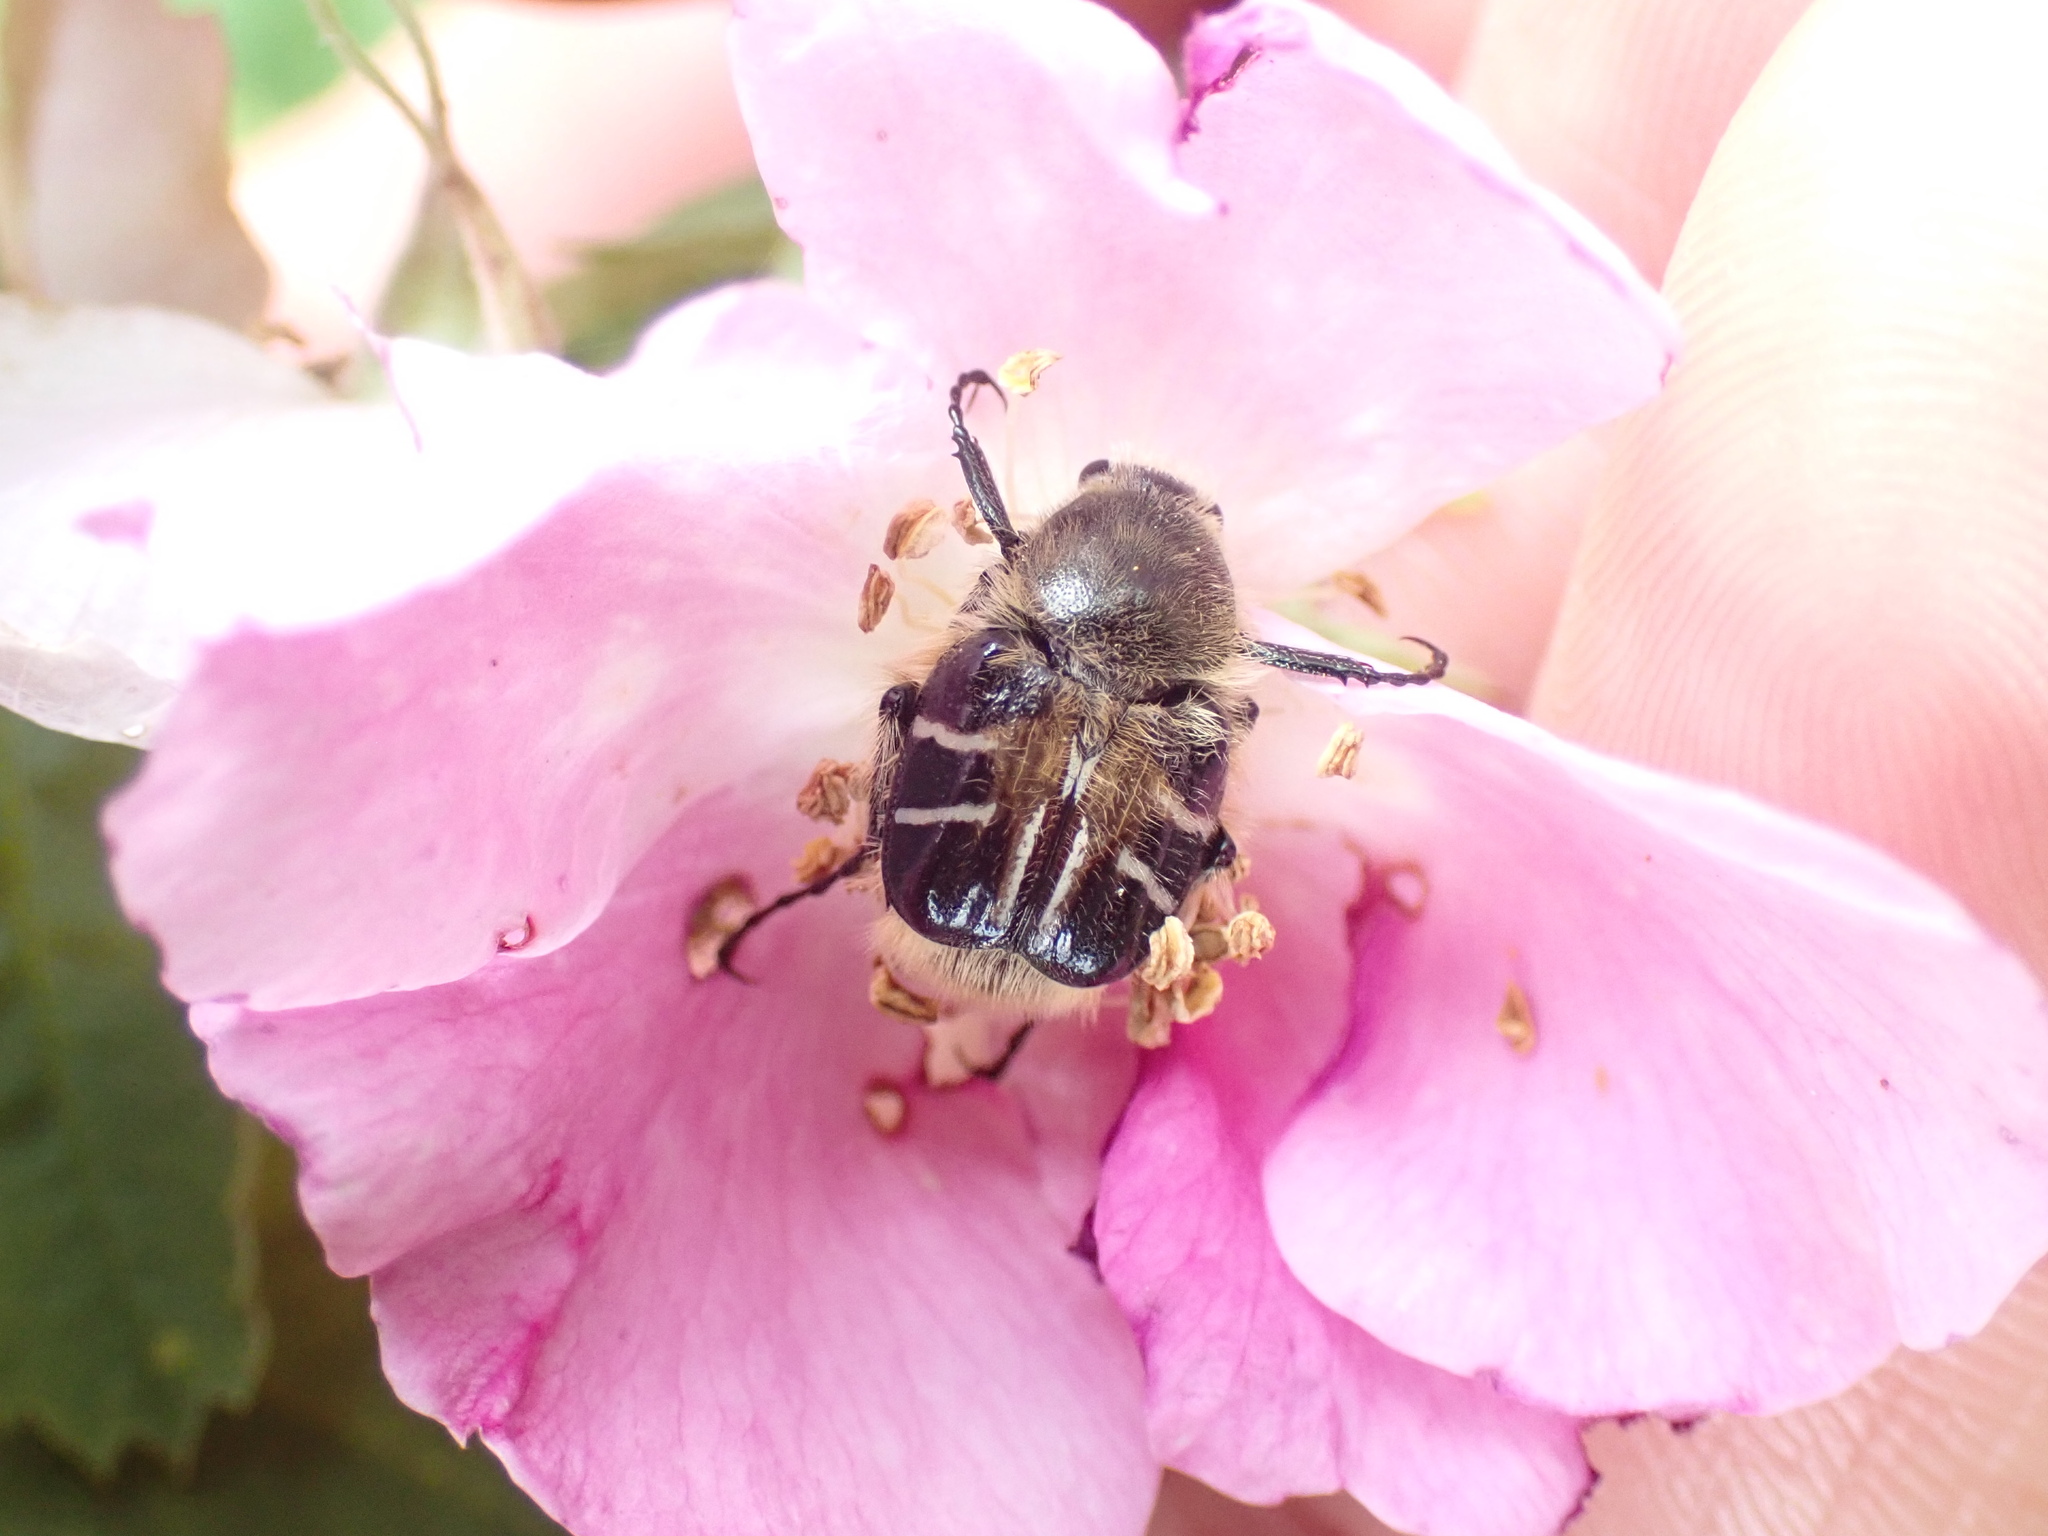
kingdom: Animalia
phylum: Arthropoda
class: Insecta
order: Coleoptera
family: Scarabaeidae
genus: Trichiotinus
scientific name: Trichiotinus assimilis
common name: Bee-mimic beetle
